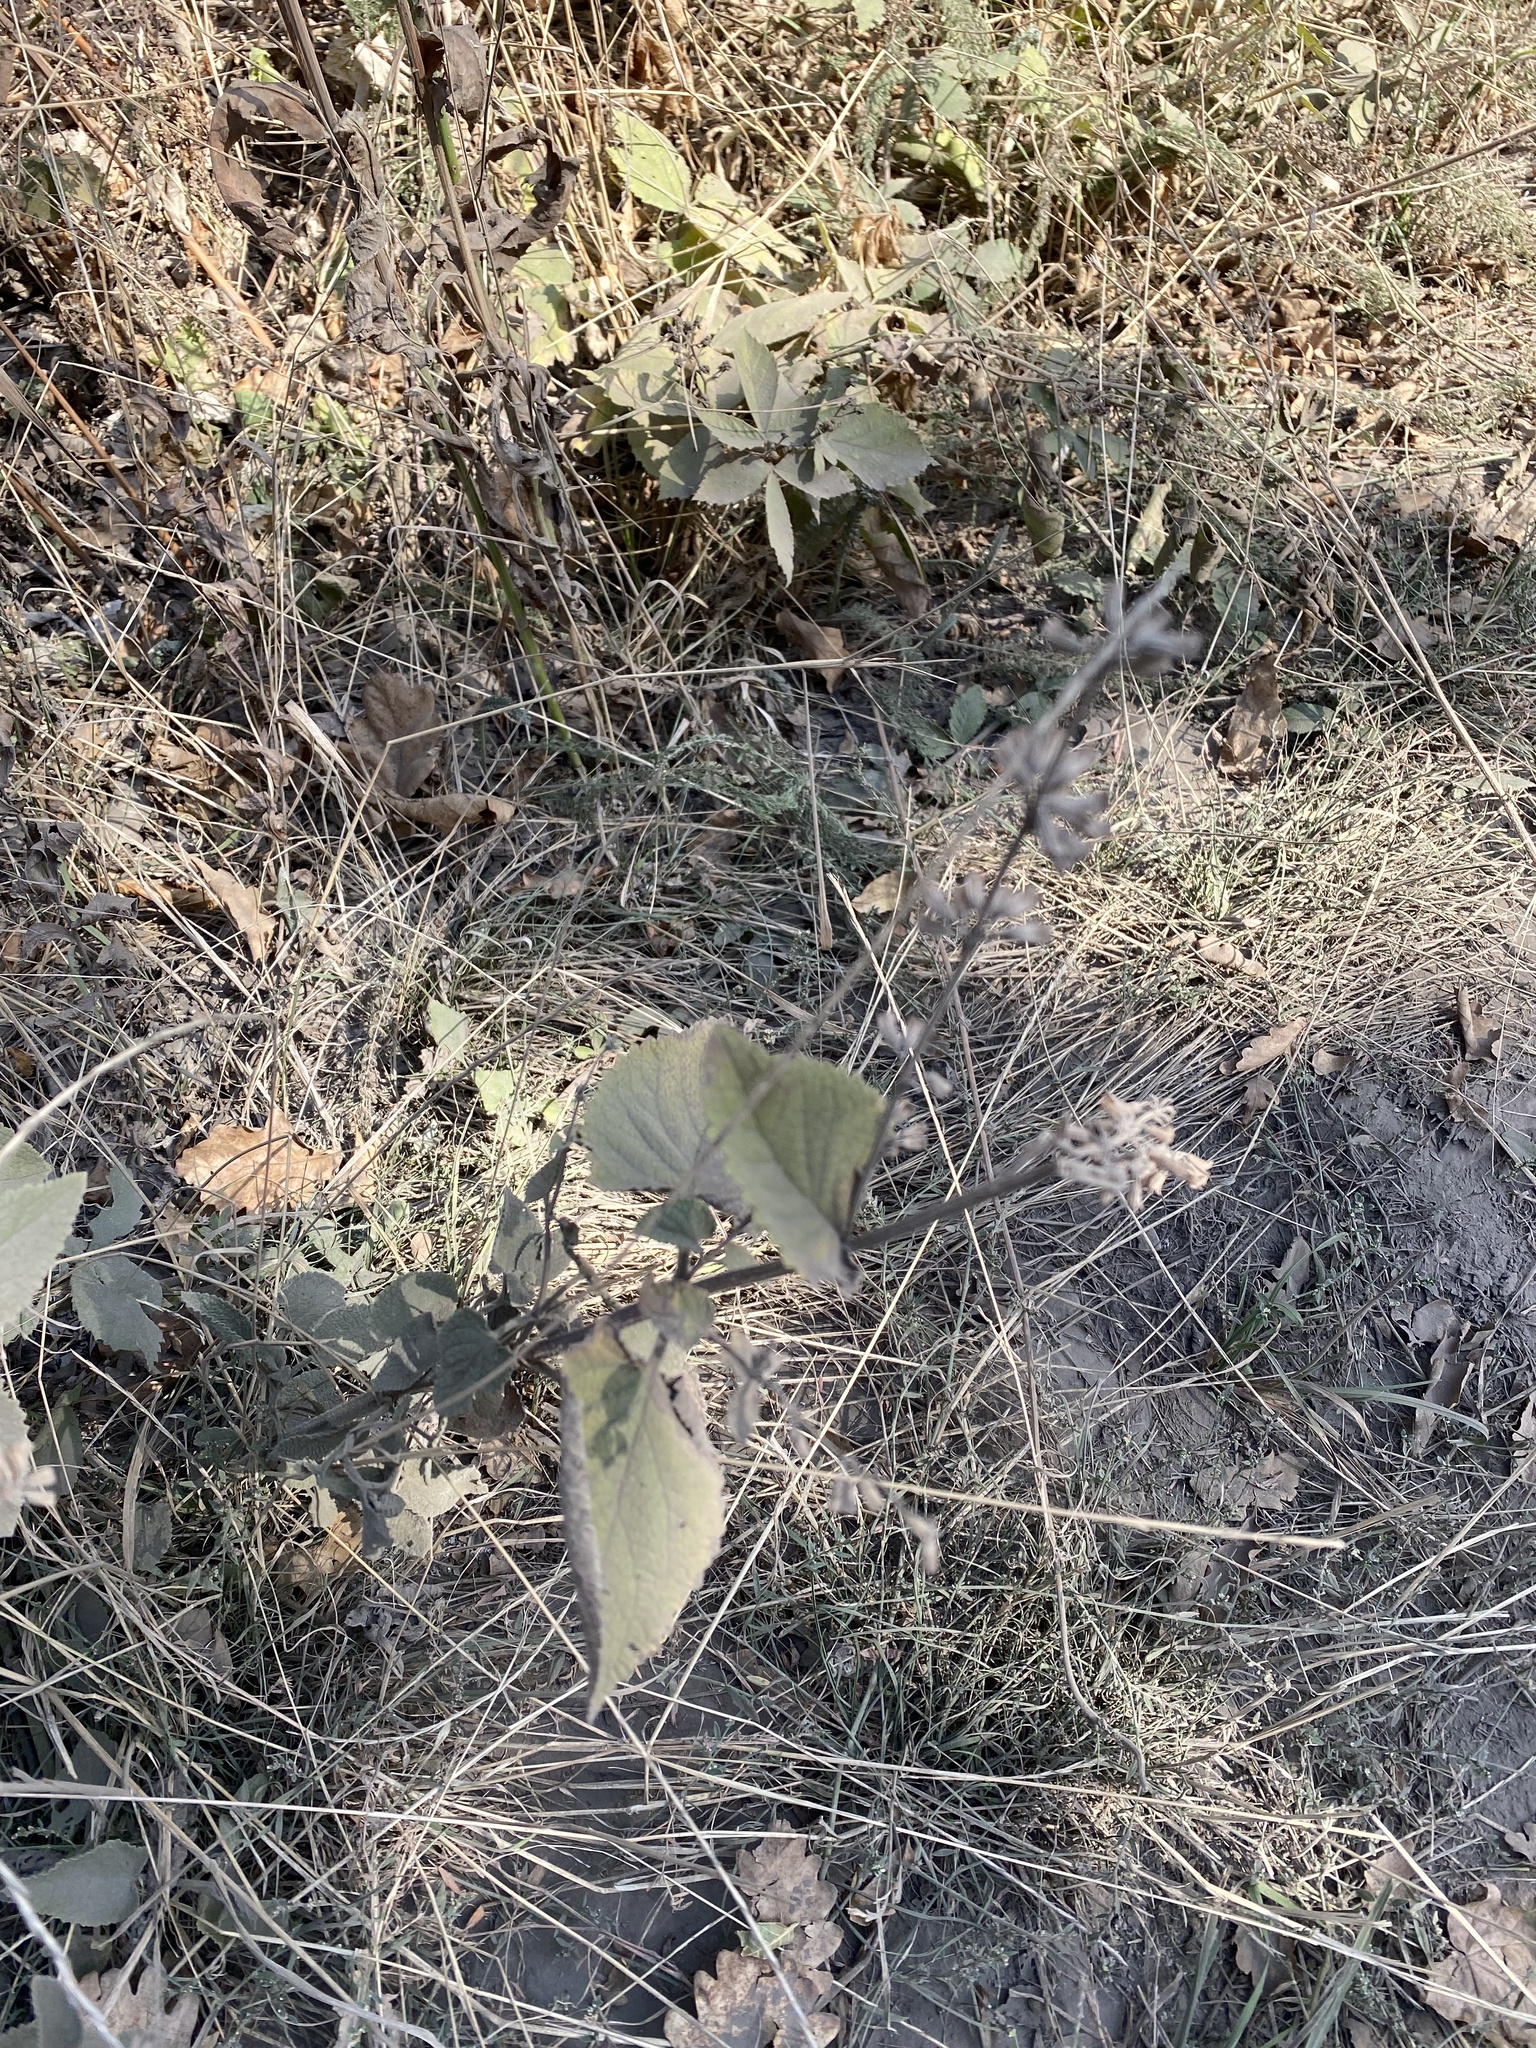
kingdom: Plantae
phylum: Tracheophyta
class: Magnoliopsida
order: Lamiales
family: Lamiaceae
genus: Salvia
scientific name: Salvia verticillata
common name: Whorled clary
